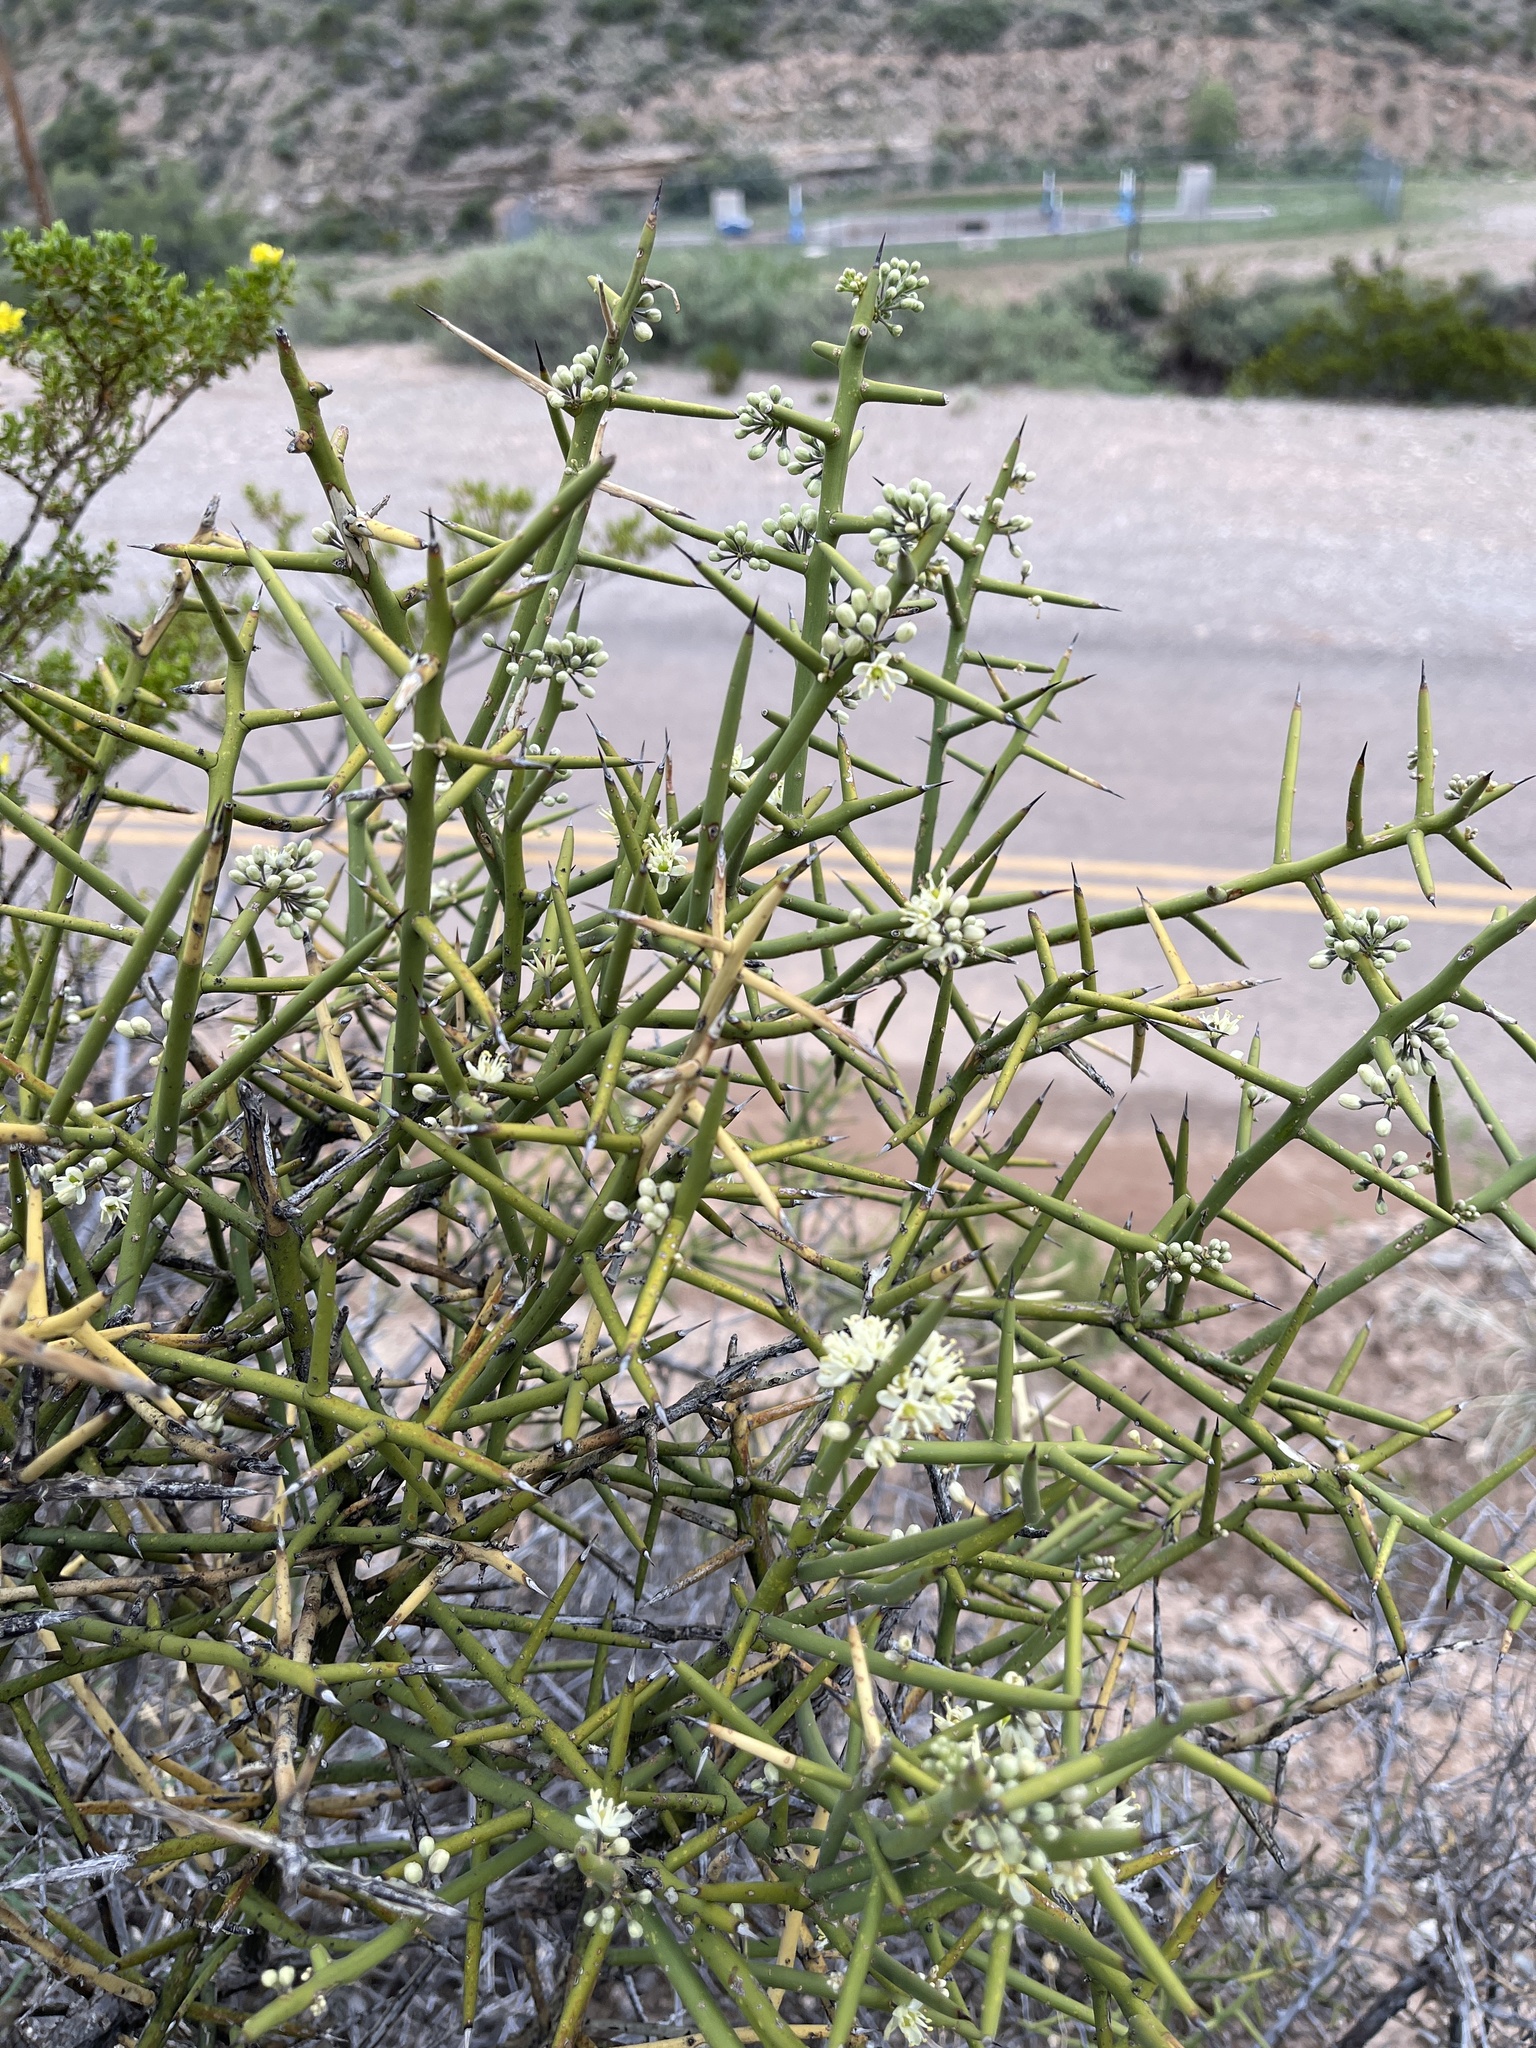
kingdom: Plantae
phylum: Tracheophyta
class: Magnoliopsida
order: Brassicales
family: Koeberliniaceae
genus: Koeberlinia
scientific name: Koeberlinia spinosa
